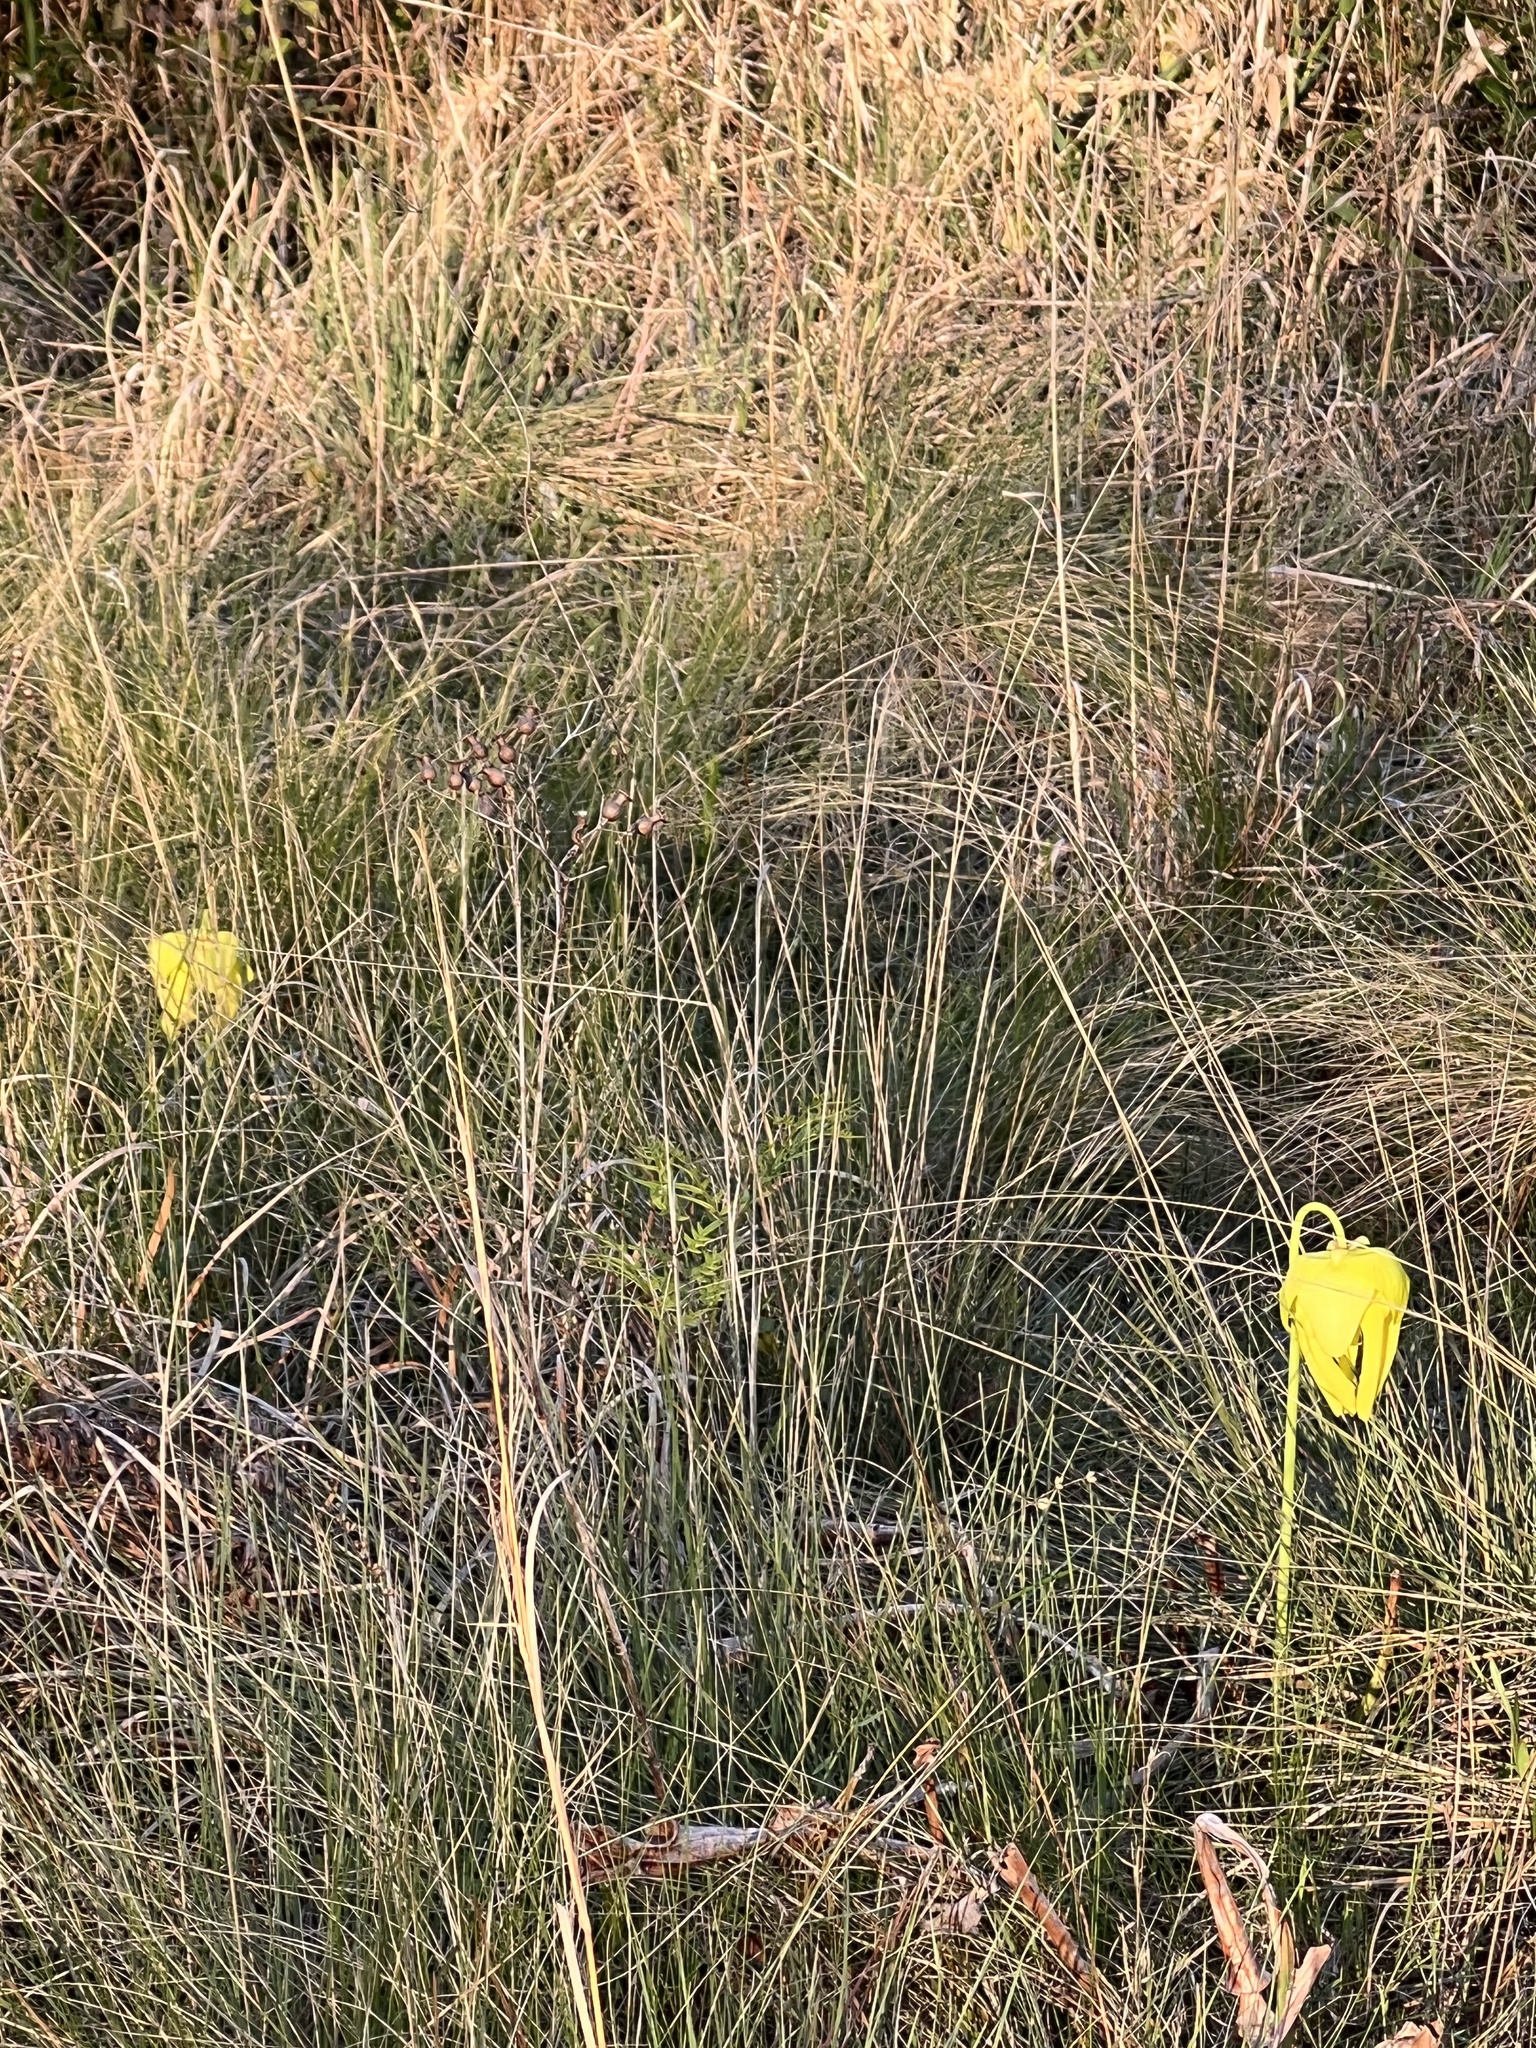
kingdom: Plantae
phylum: Tracheophyta
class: Magnoliopsida
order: Ericales
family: Sarraceniaceae
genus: Sarracenia
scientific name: Sarracenia flava
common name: Trumpets
